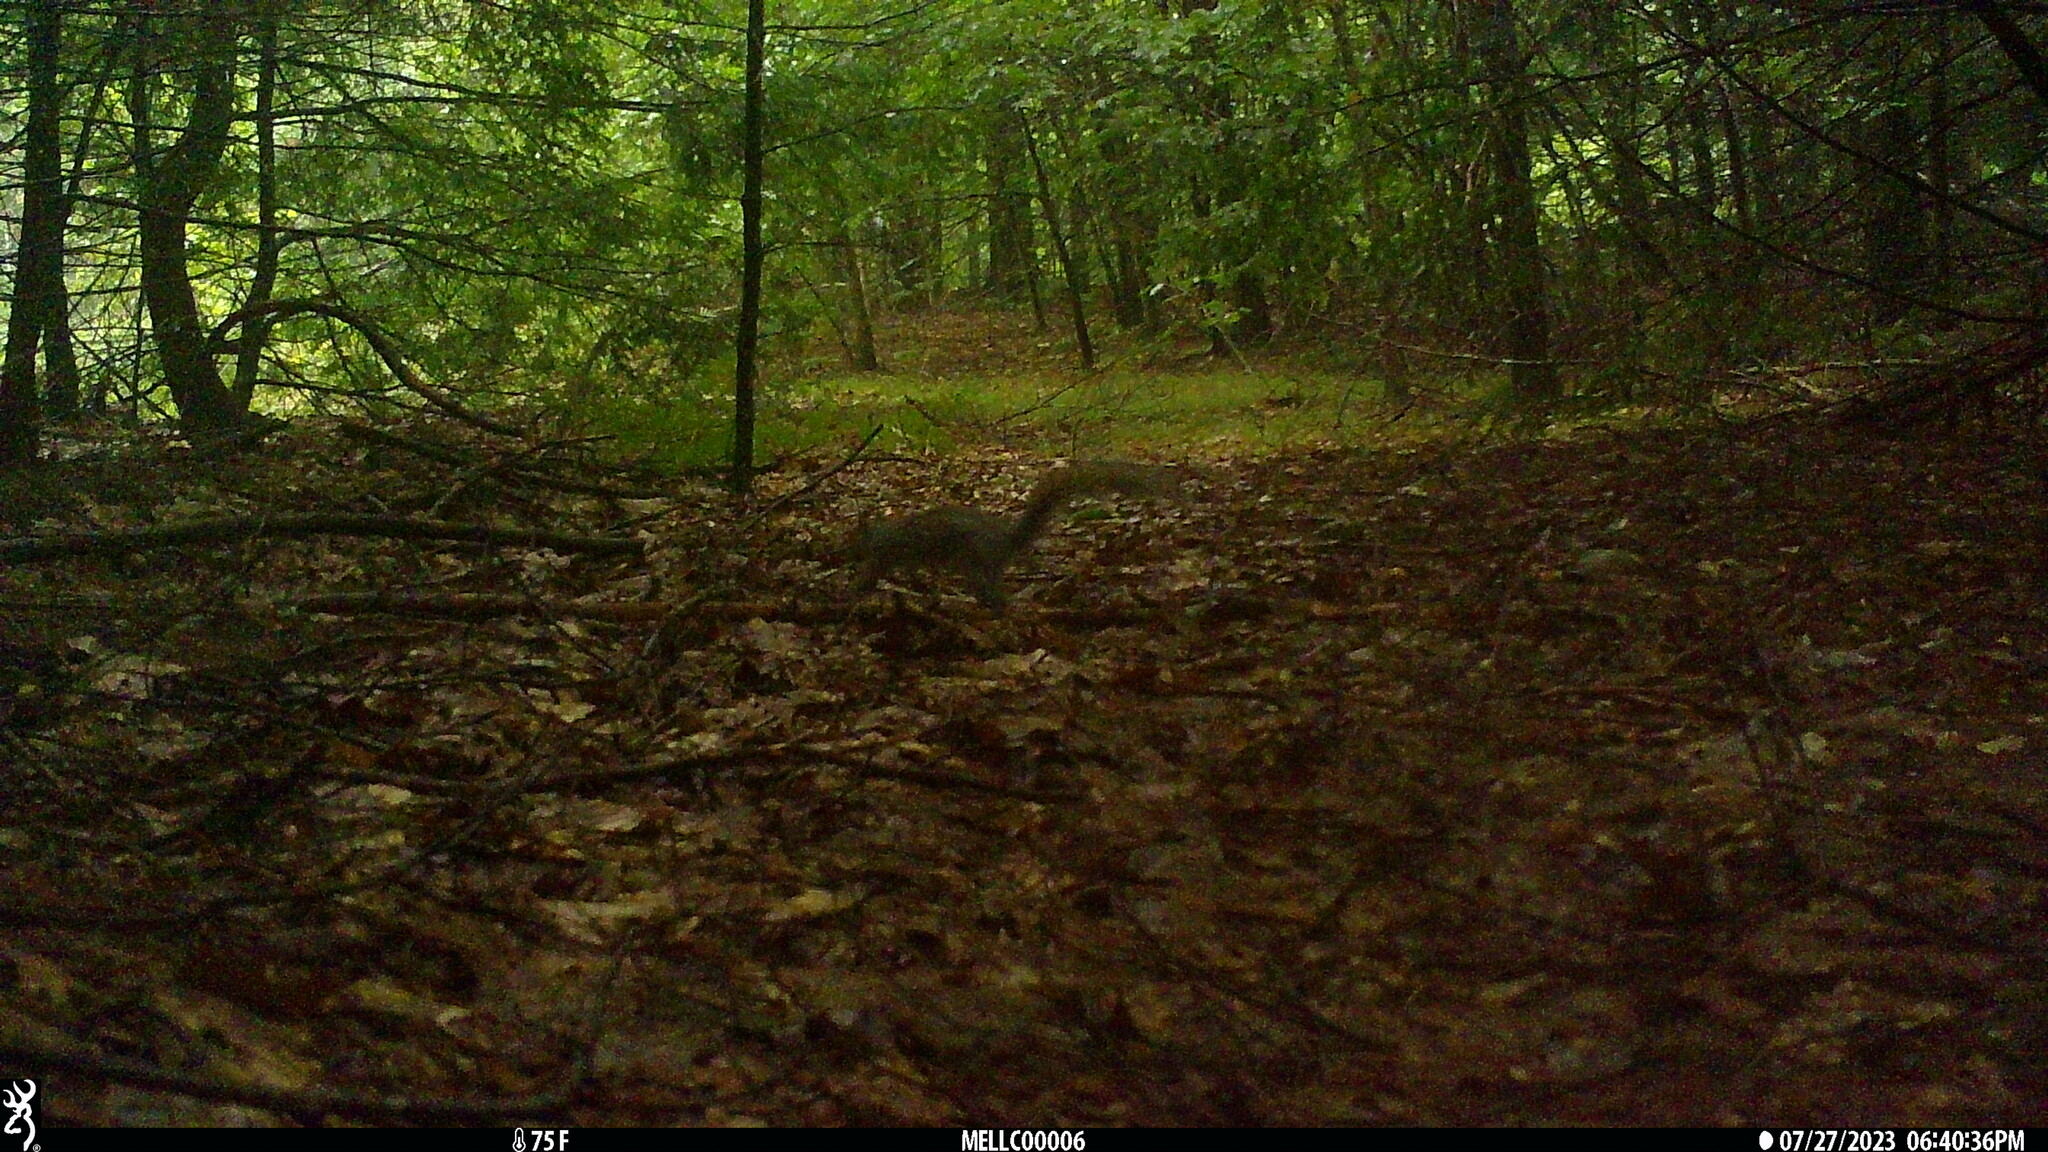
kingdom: Animalia
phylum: Chordata
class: Mammalia
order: Rodentia
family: Sciuridae
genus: Sciurus
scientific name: Sciurus carolinensis
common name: Eastern gray squirrel
